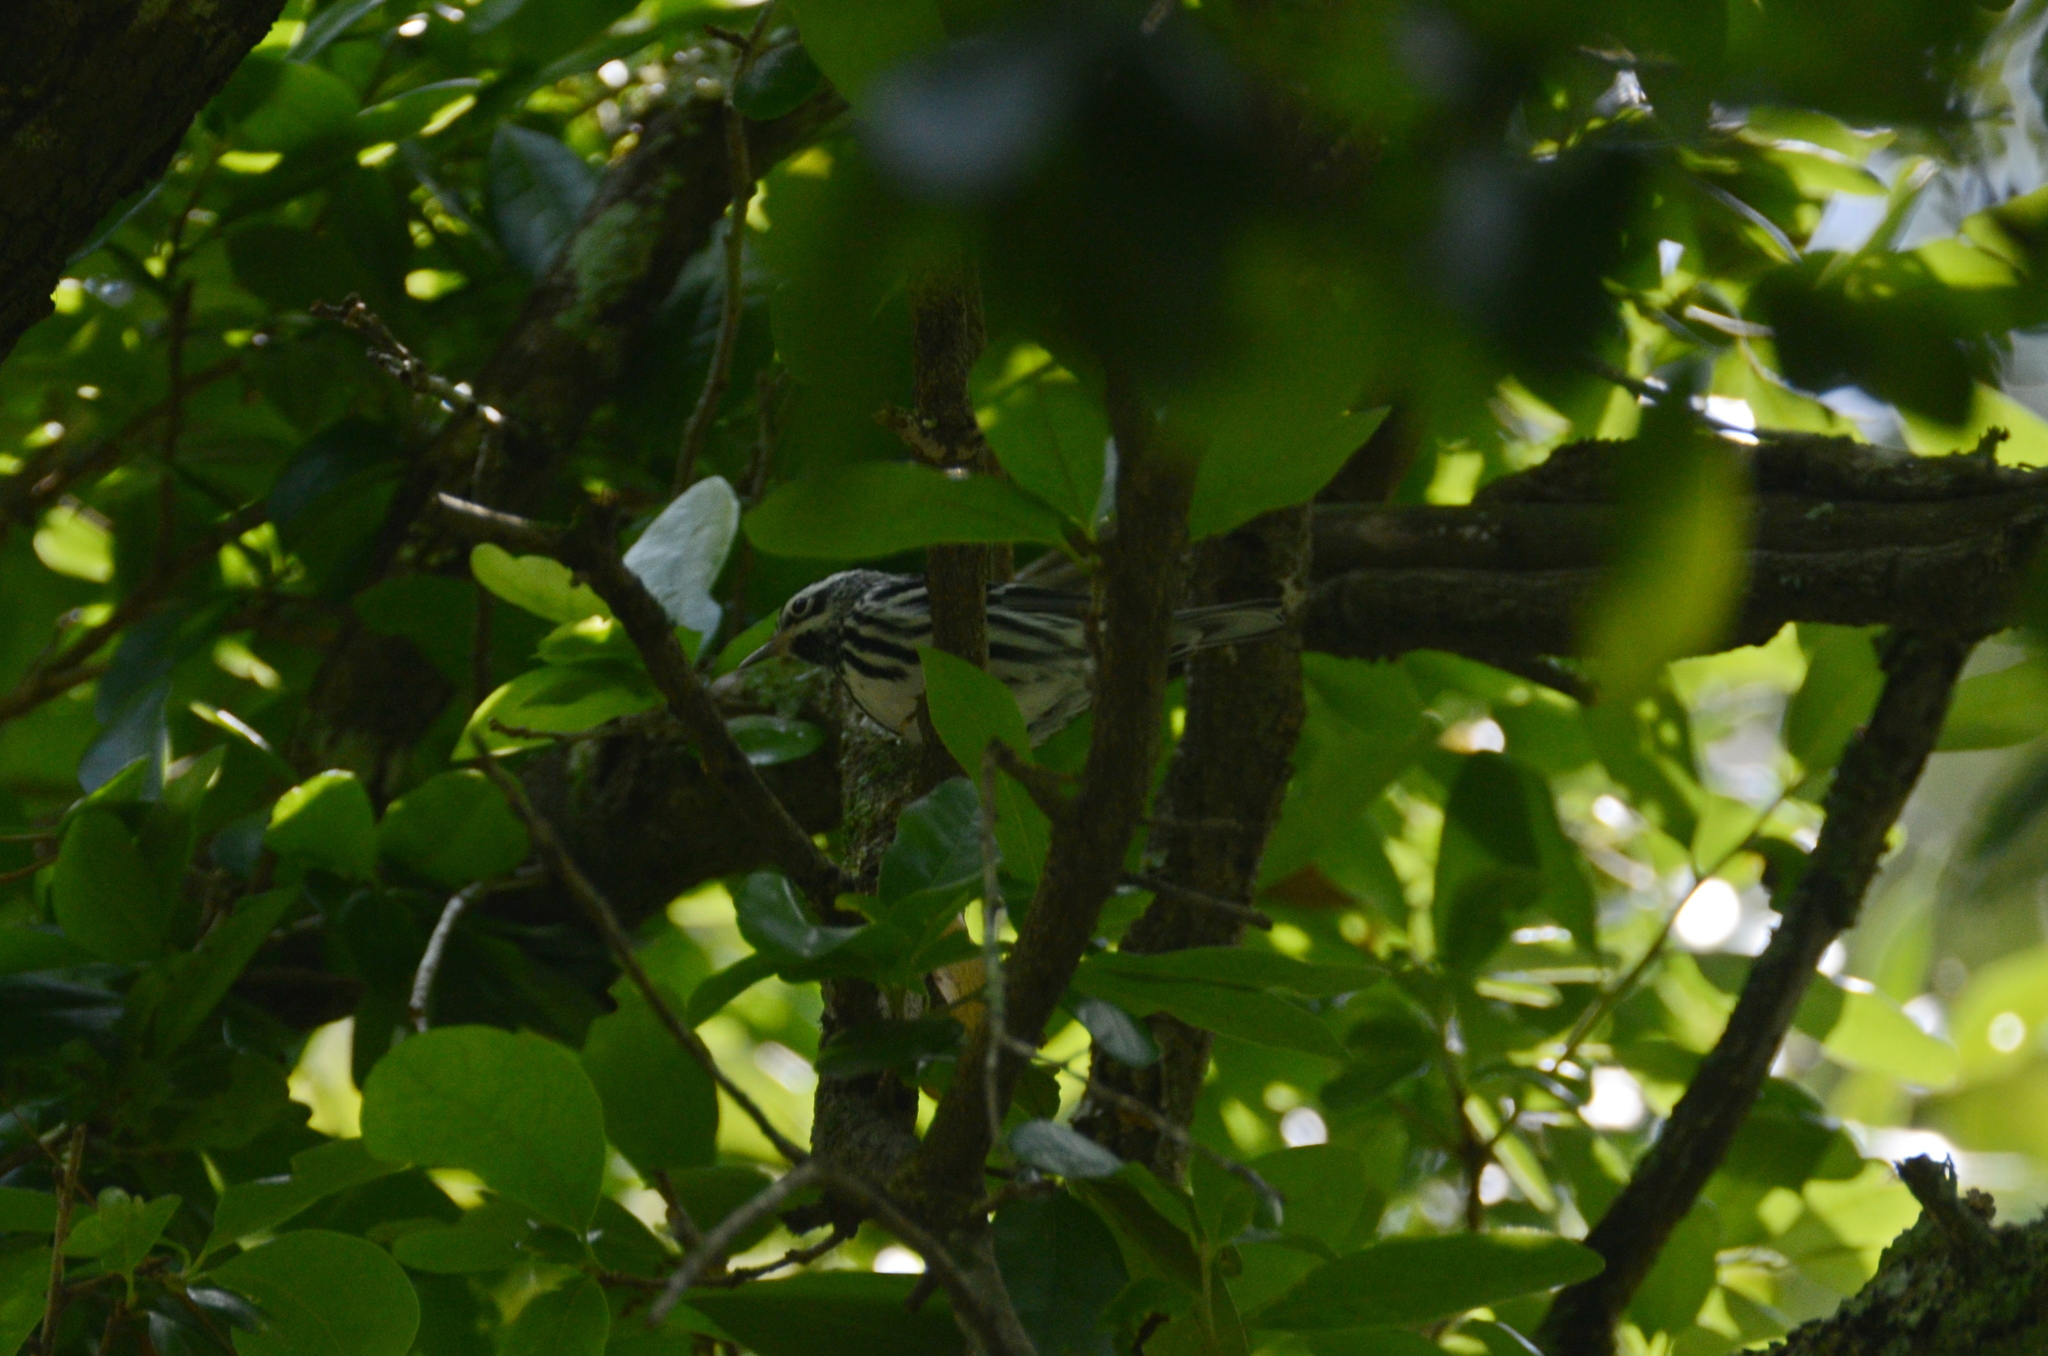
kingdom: Animalia
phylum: Chordata
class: Aves
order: Passeriformes
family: Parulidae
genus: Mniotilta
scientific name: Mniotilta varia
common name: Black-and-white warbler
